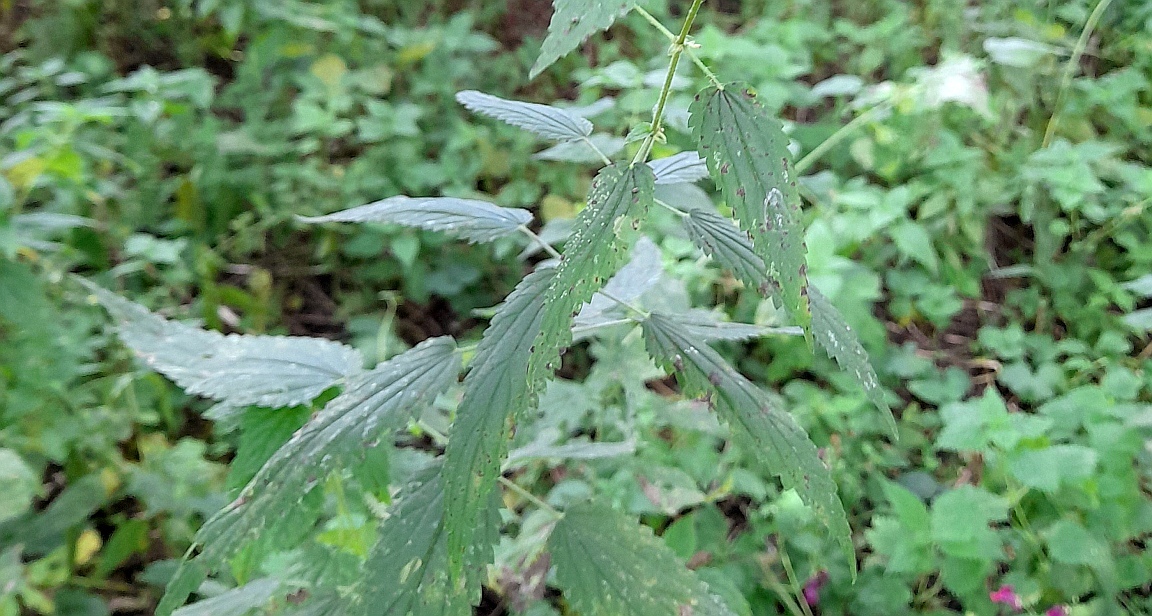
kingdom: Plantae
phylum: Tracheophyta
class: Magnoliopsida
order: Rosales
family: Urticaceae
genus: Urtica
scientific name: Urtica dioica
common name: Common nettle
